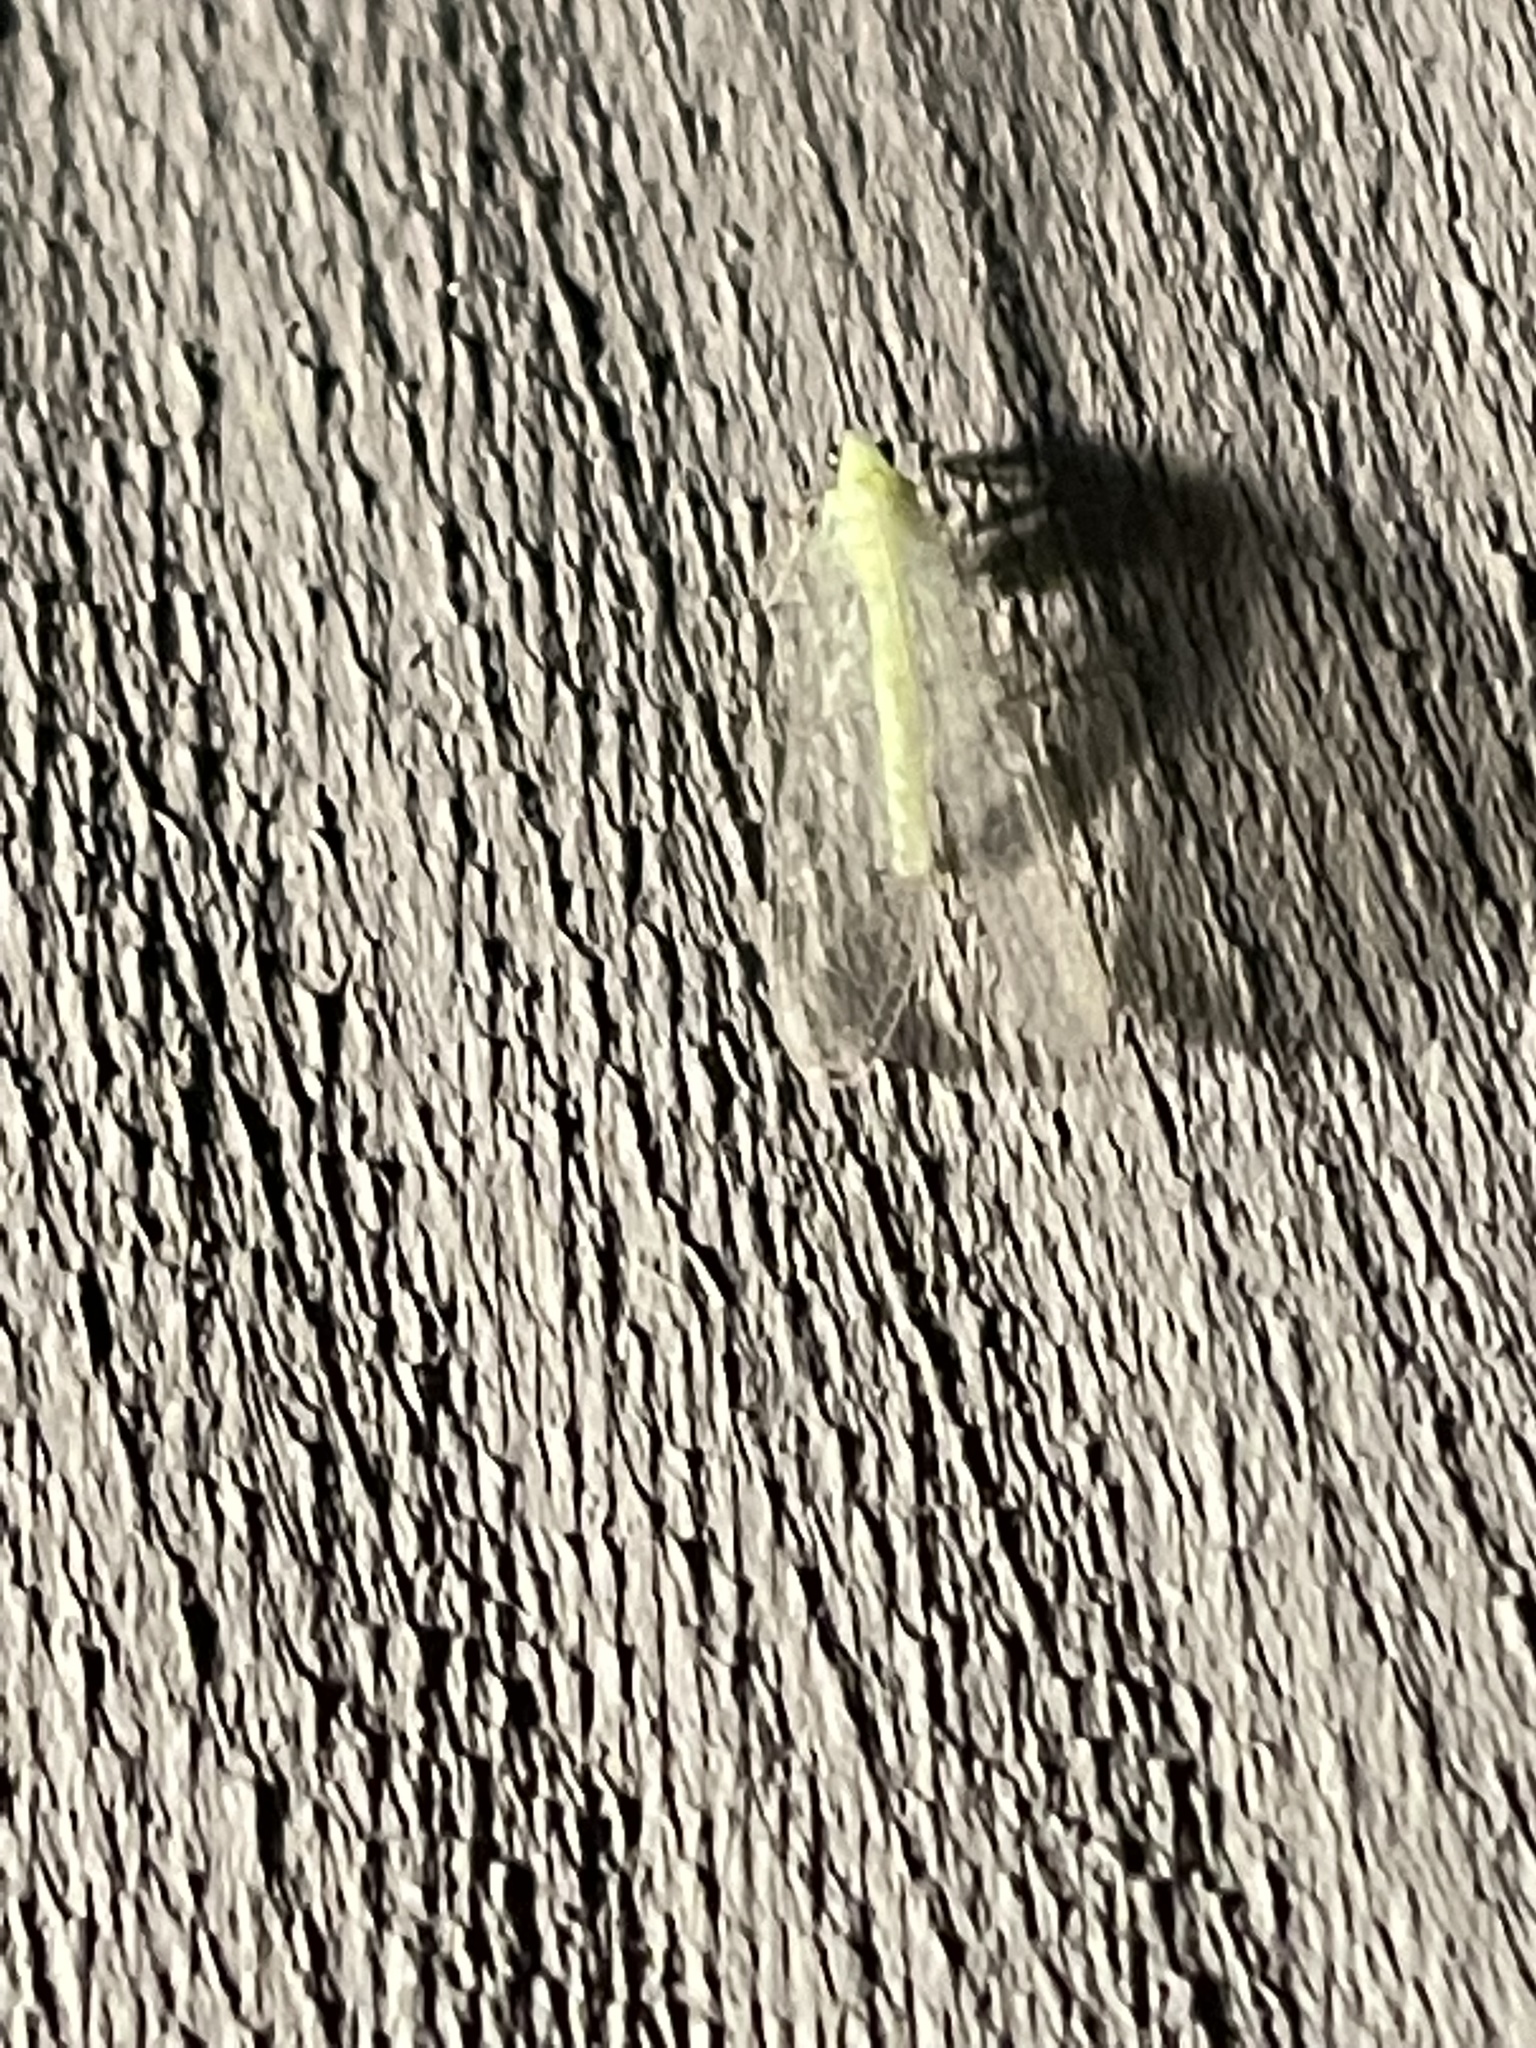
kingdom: Animalia
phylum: Arthropoda
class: Insecta
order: Neuroptera
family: Chrysopidae
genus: Chrysopa
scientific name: Chrysopa nigricornis
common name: Black-horned green lacewing
